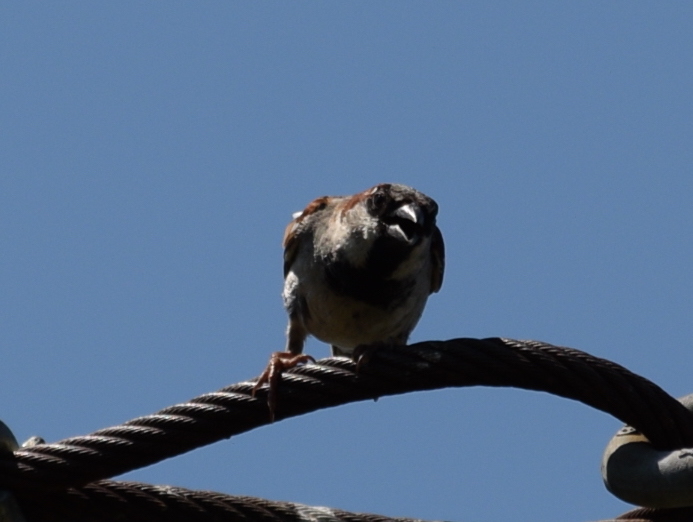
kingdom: Animalia
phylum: Chordata
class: Aves
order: Passeriformes
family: Passeridae
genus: Passer
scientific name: Passer domesticus
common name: House sparrow
